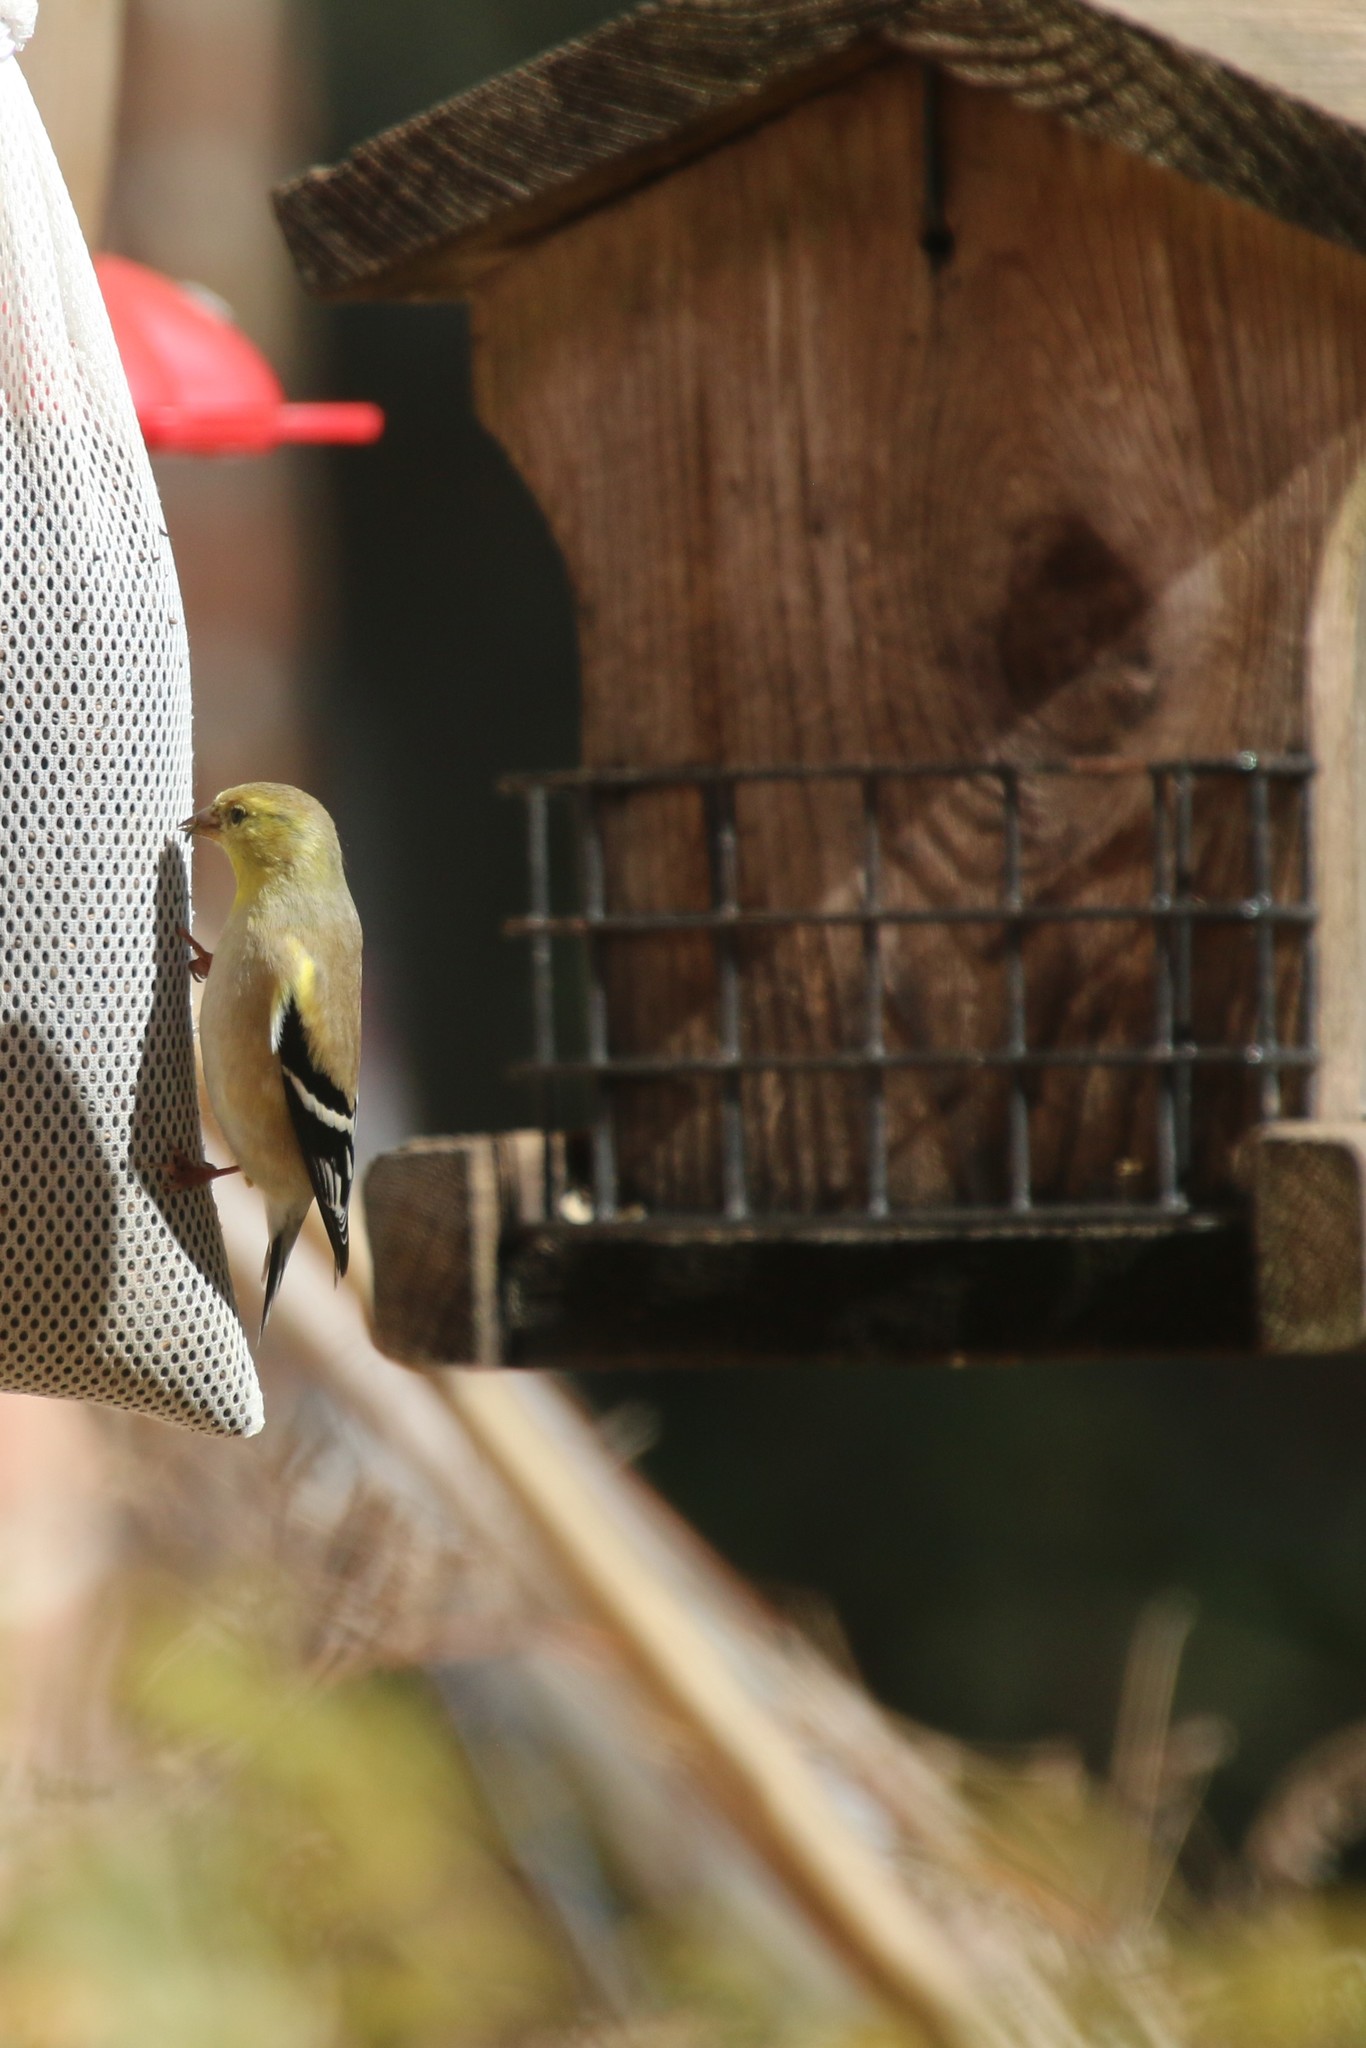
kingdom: Animalia
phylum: Chordata
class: Aves
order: Passeriformes
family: Fringillidae
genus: Spinus
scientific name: Spinus tristis
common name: American goldfinch
